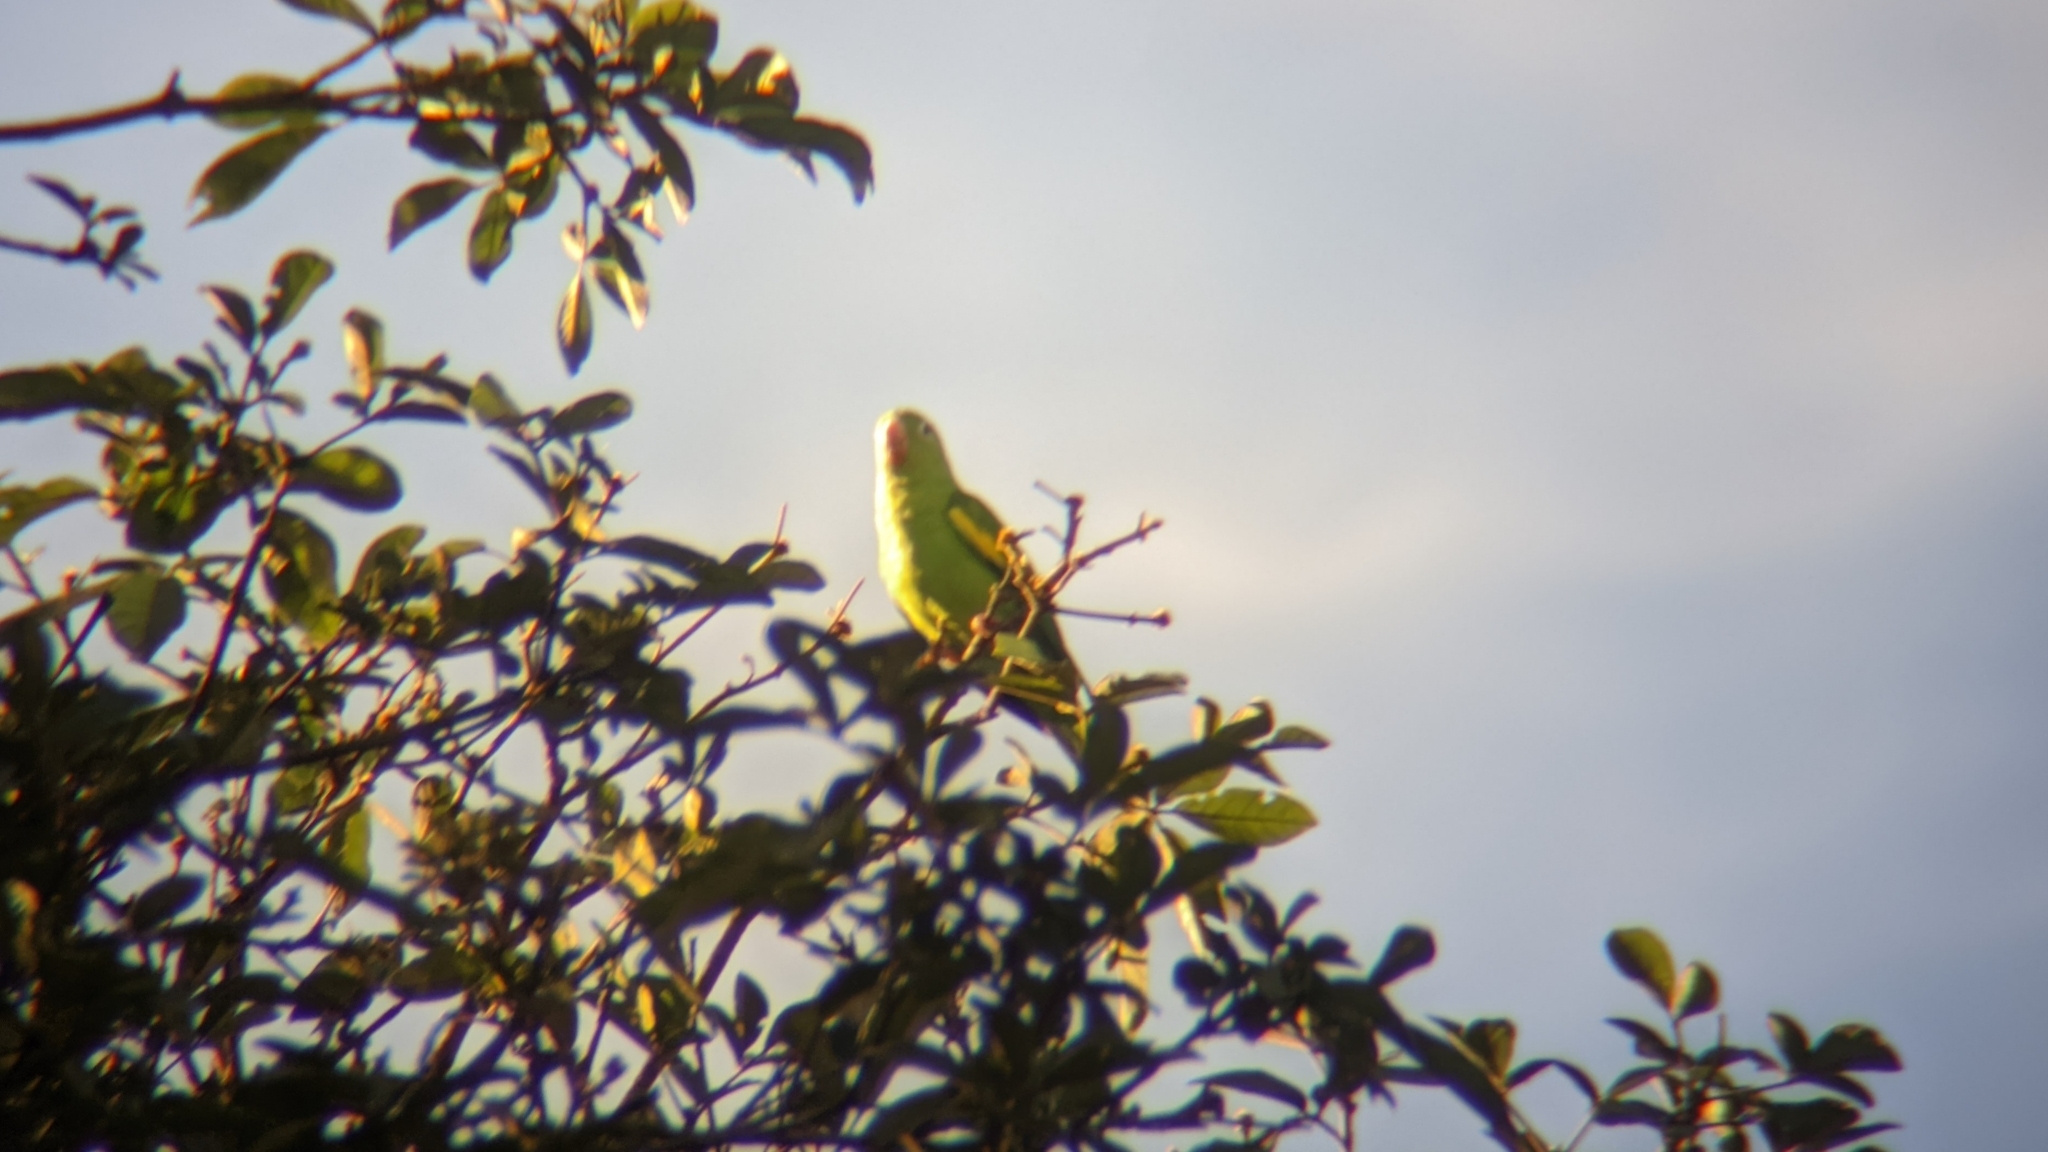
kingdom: Animalia
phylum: Chordata
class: Aves
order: Psittaciformes
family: Psittacidae
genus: Brotogeris
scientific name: Brotogeris chiriri
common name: Yellow-chevroned parakeet
